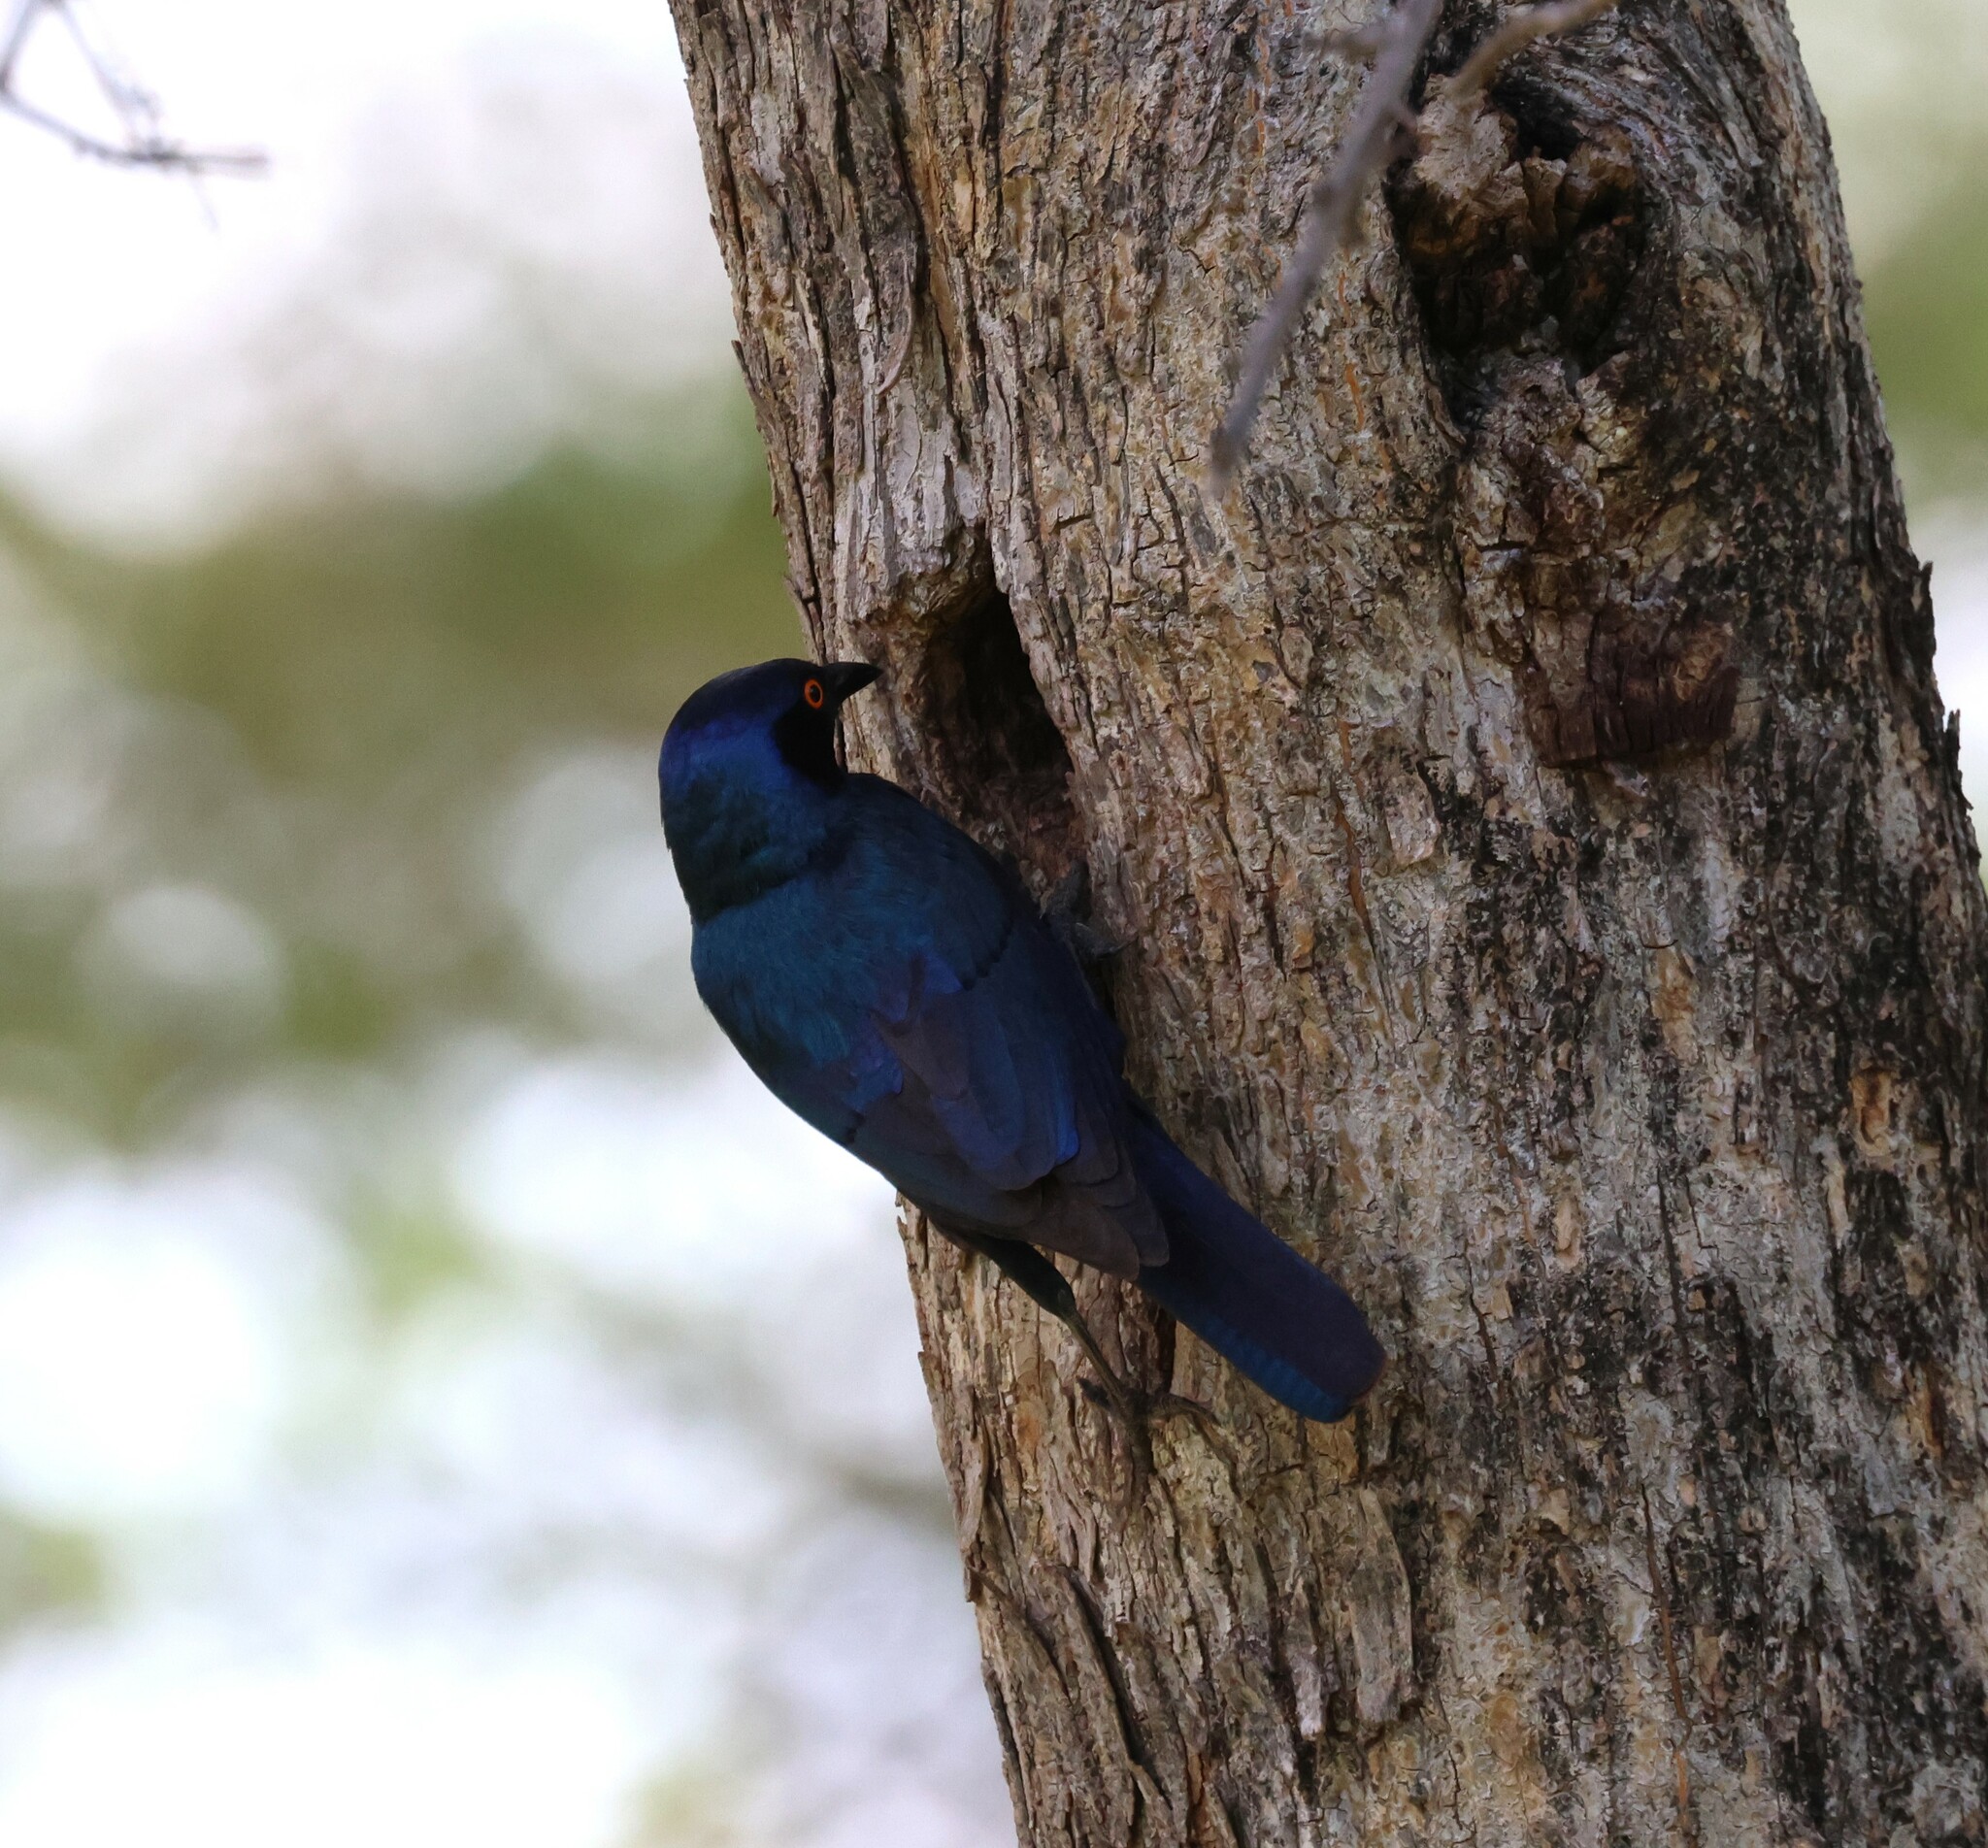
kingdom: Animalia
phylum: Chordata
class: Aves
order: Passeriformes
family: Sturnidae
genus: Lamprotornis
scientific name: Lamprotornis nitens
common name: Cape starling
